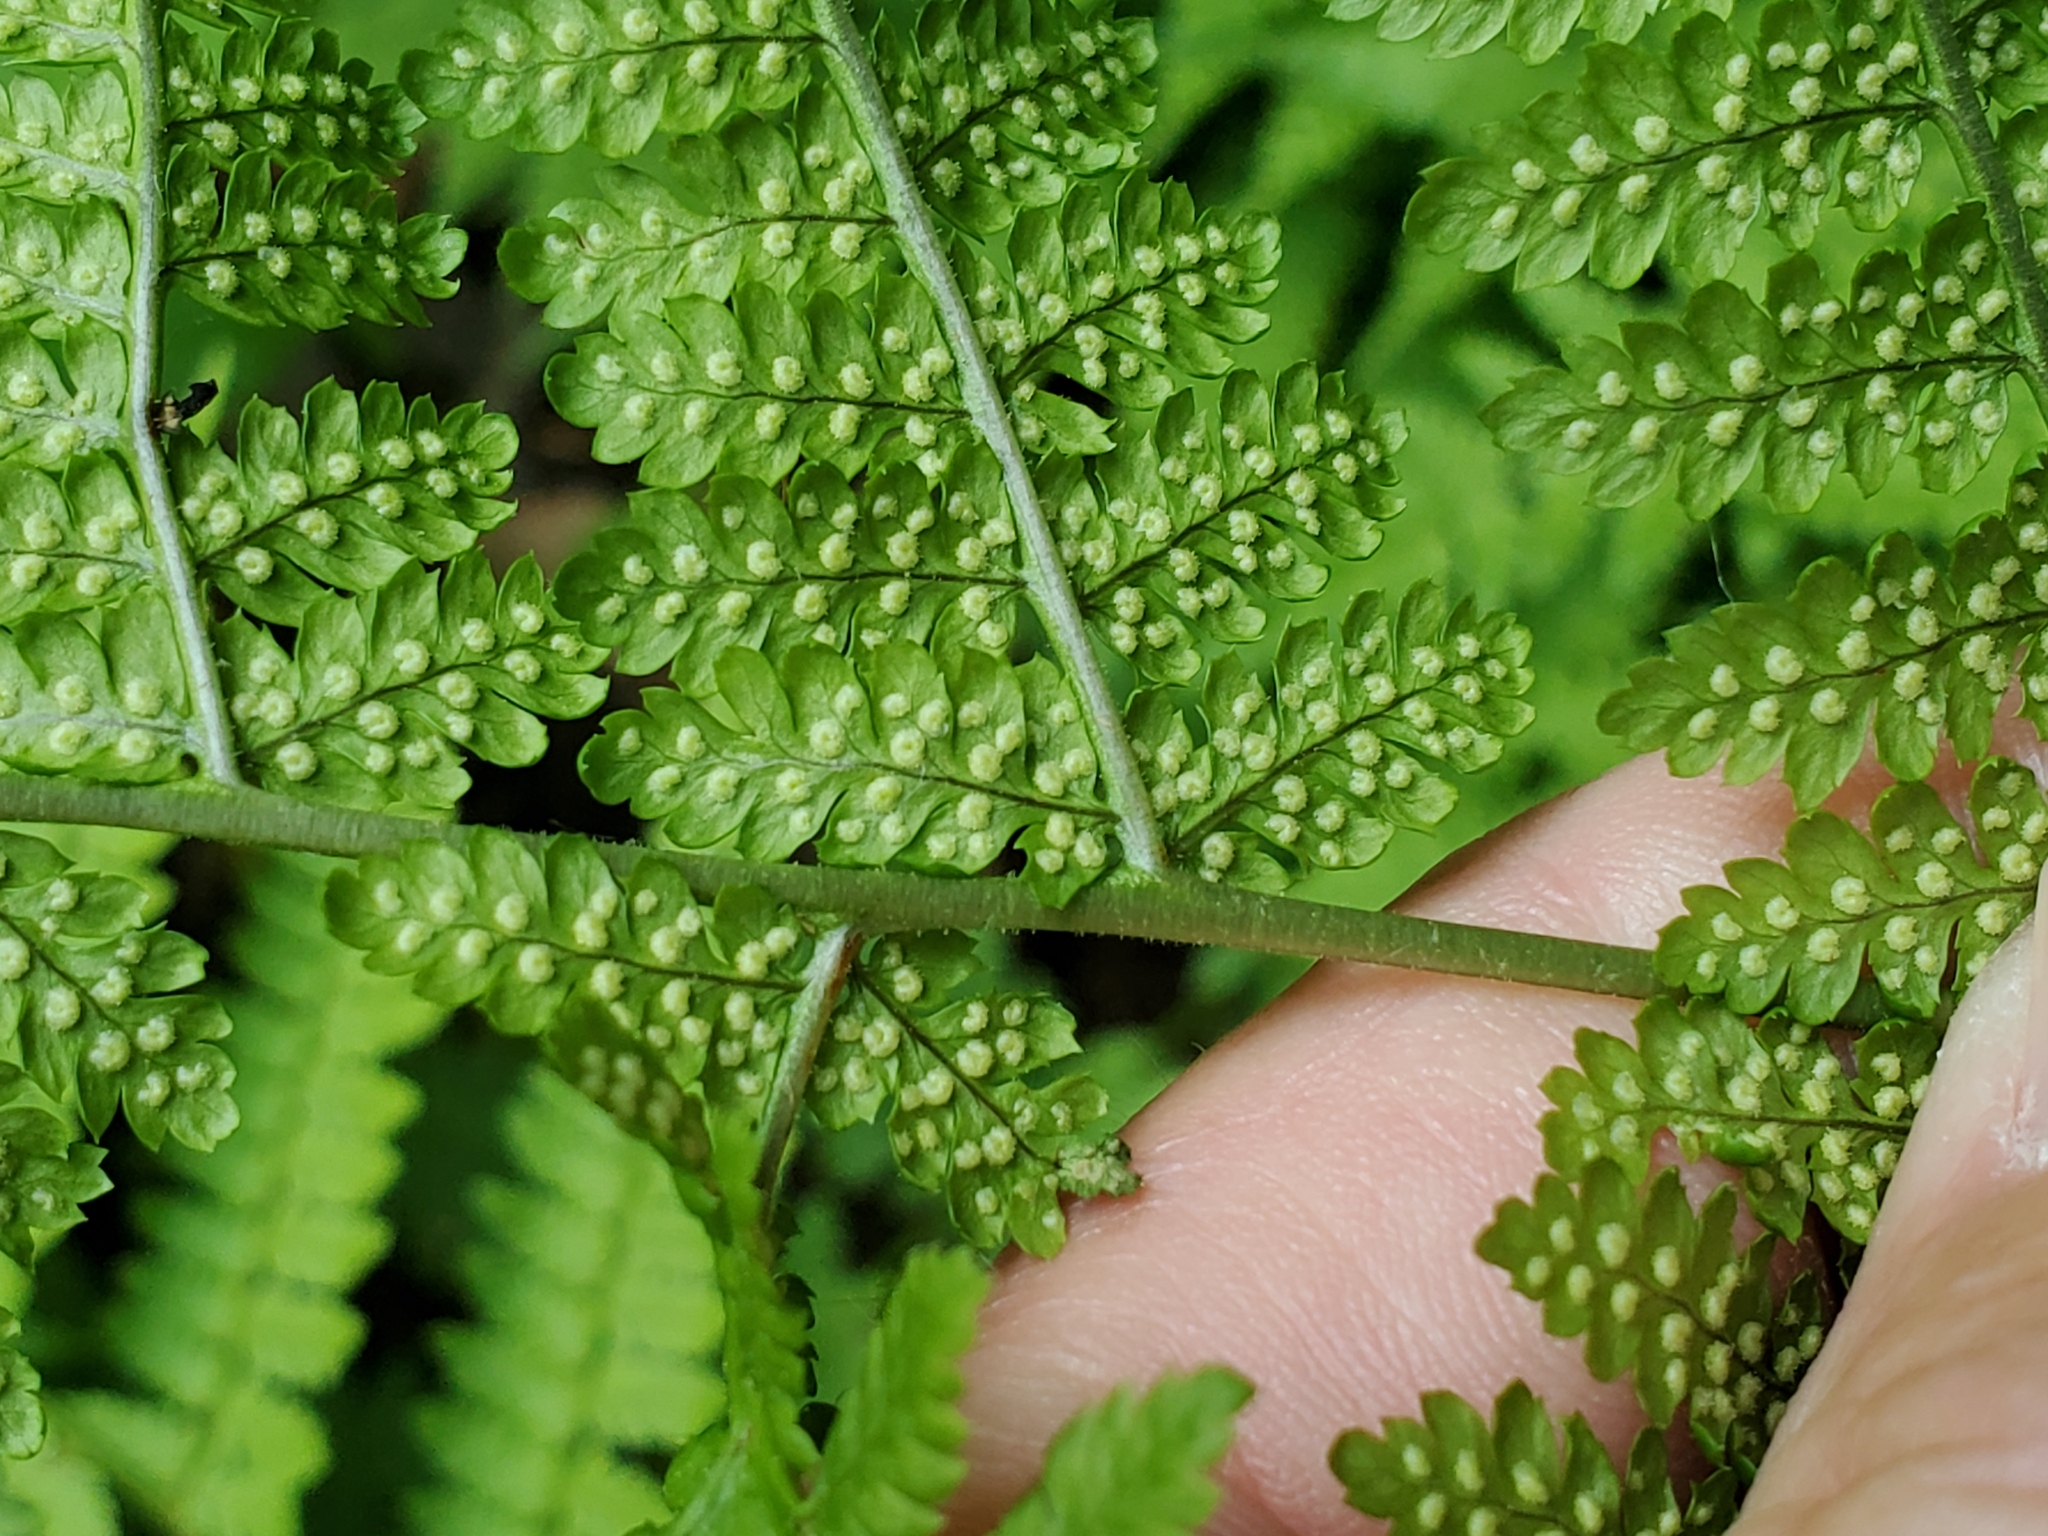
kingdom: Plantae
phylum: Tracheophyta
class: Polypodiopsida
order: Polypodiales
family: Dryopteridaceae
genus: Dryopteris
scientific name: Dryopteris intermedia
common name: Evergreen wood fern
